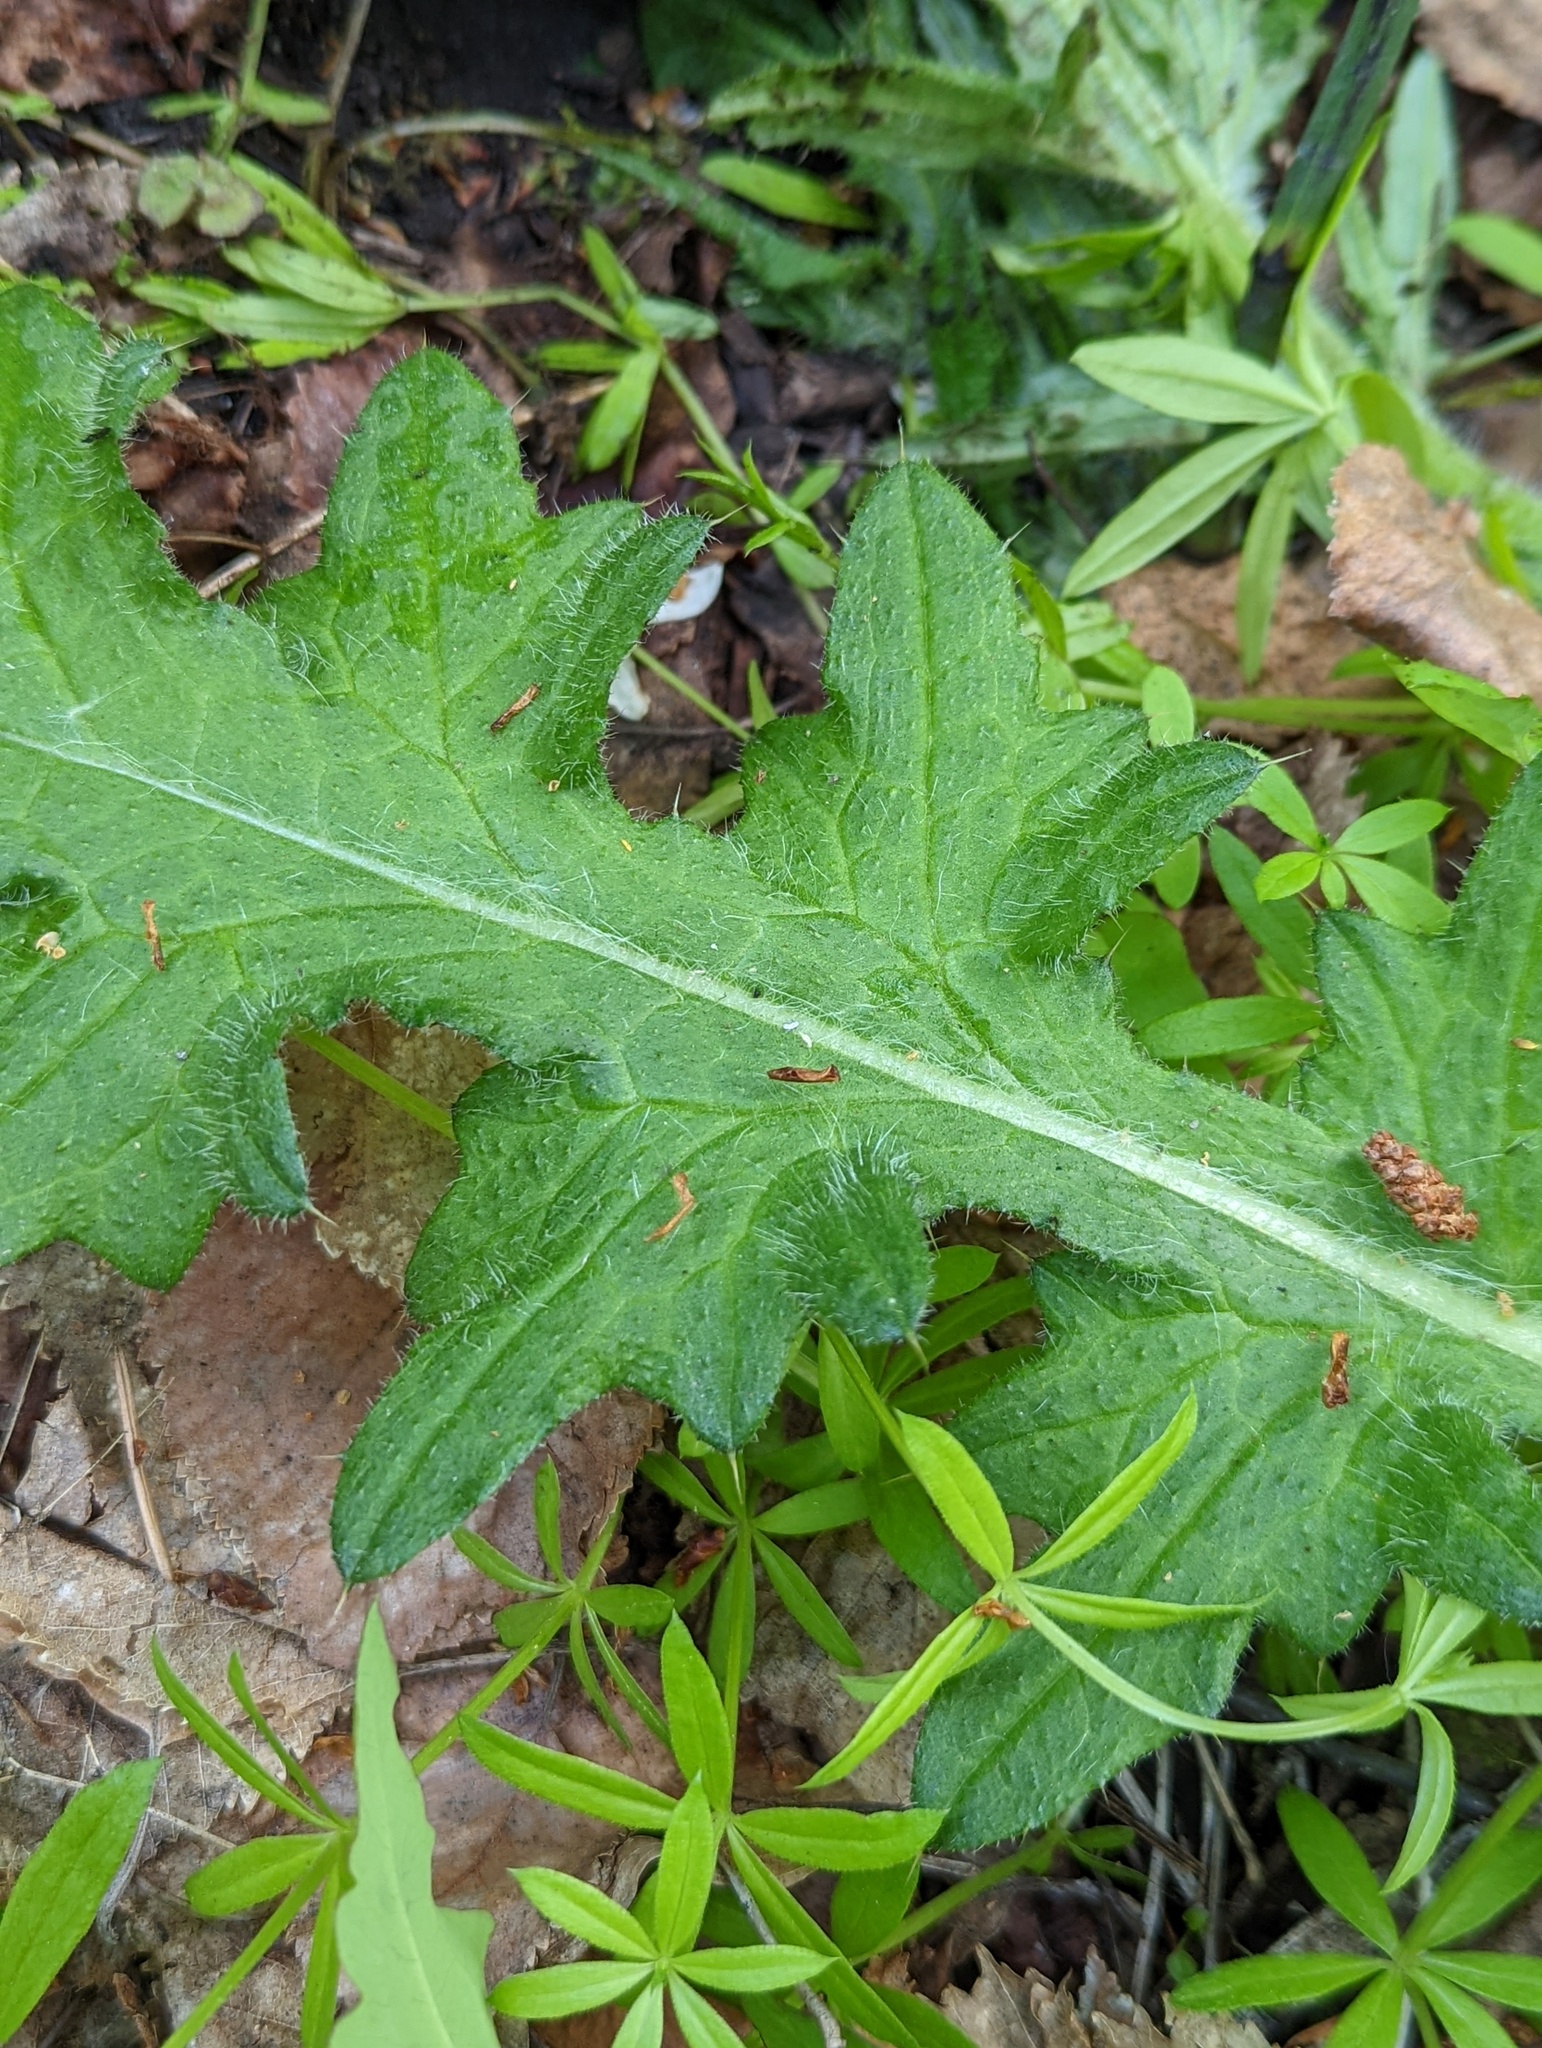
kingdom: Plantae
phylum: Tracheophyta
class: Magnoliopsida
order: Asterales
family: Asteraceae
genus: Cirsium
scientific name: Cirsium vulgare
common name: Bull thistle
